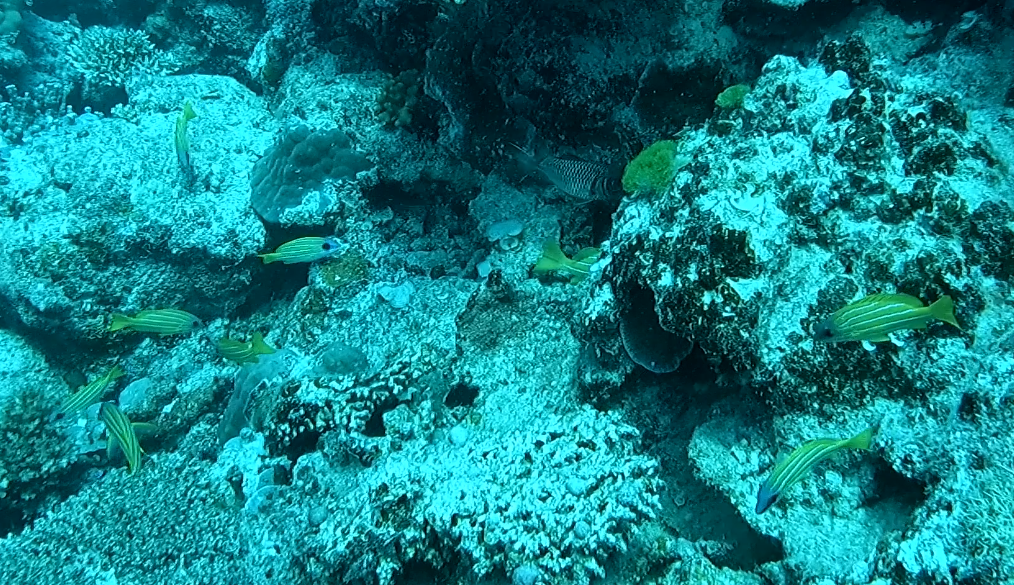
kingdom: Animalia
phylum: Chordata
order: Perciformes
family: Lutjanidae
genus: Lutjanus
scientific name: Lutjanus kasmira
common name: Common bluestripe snapper
